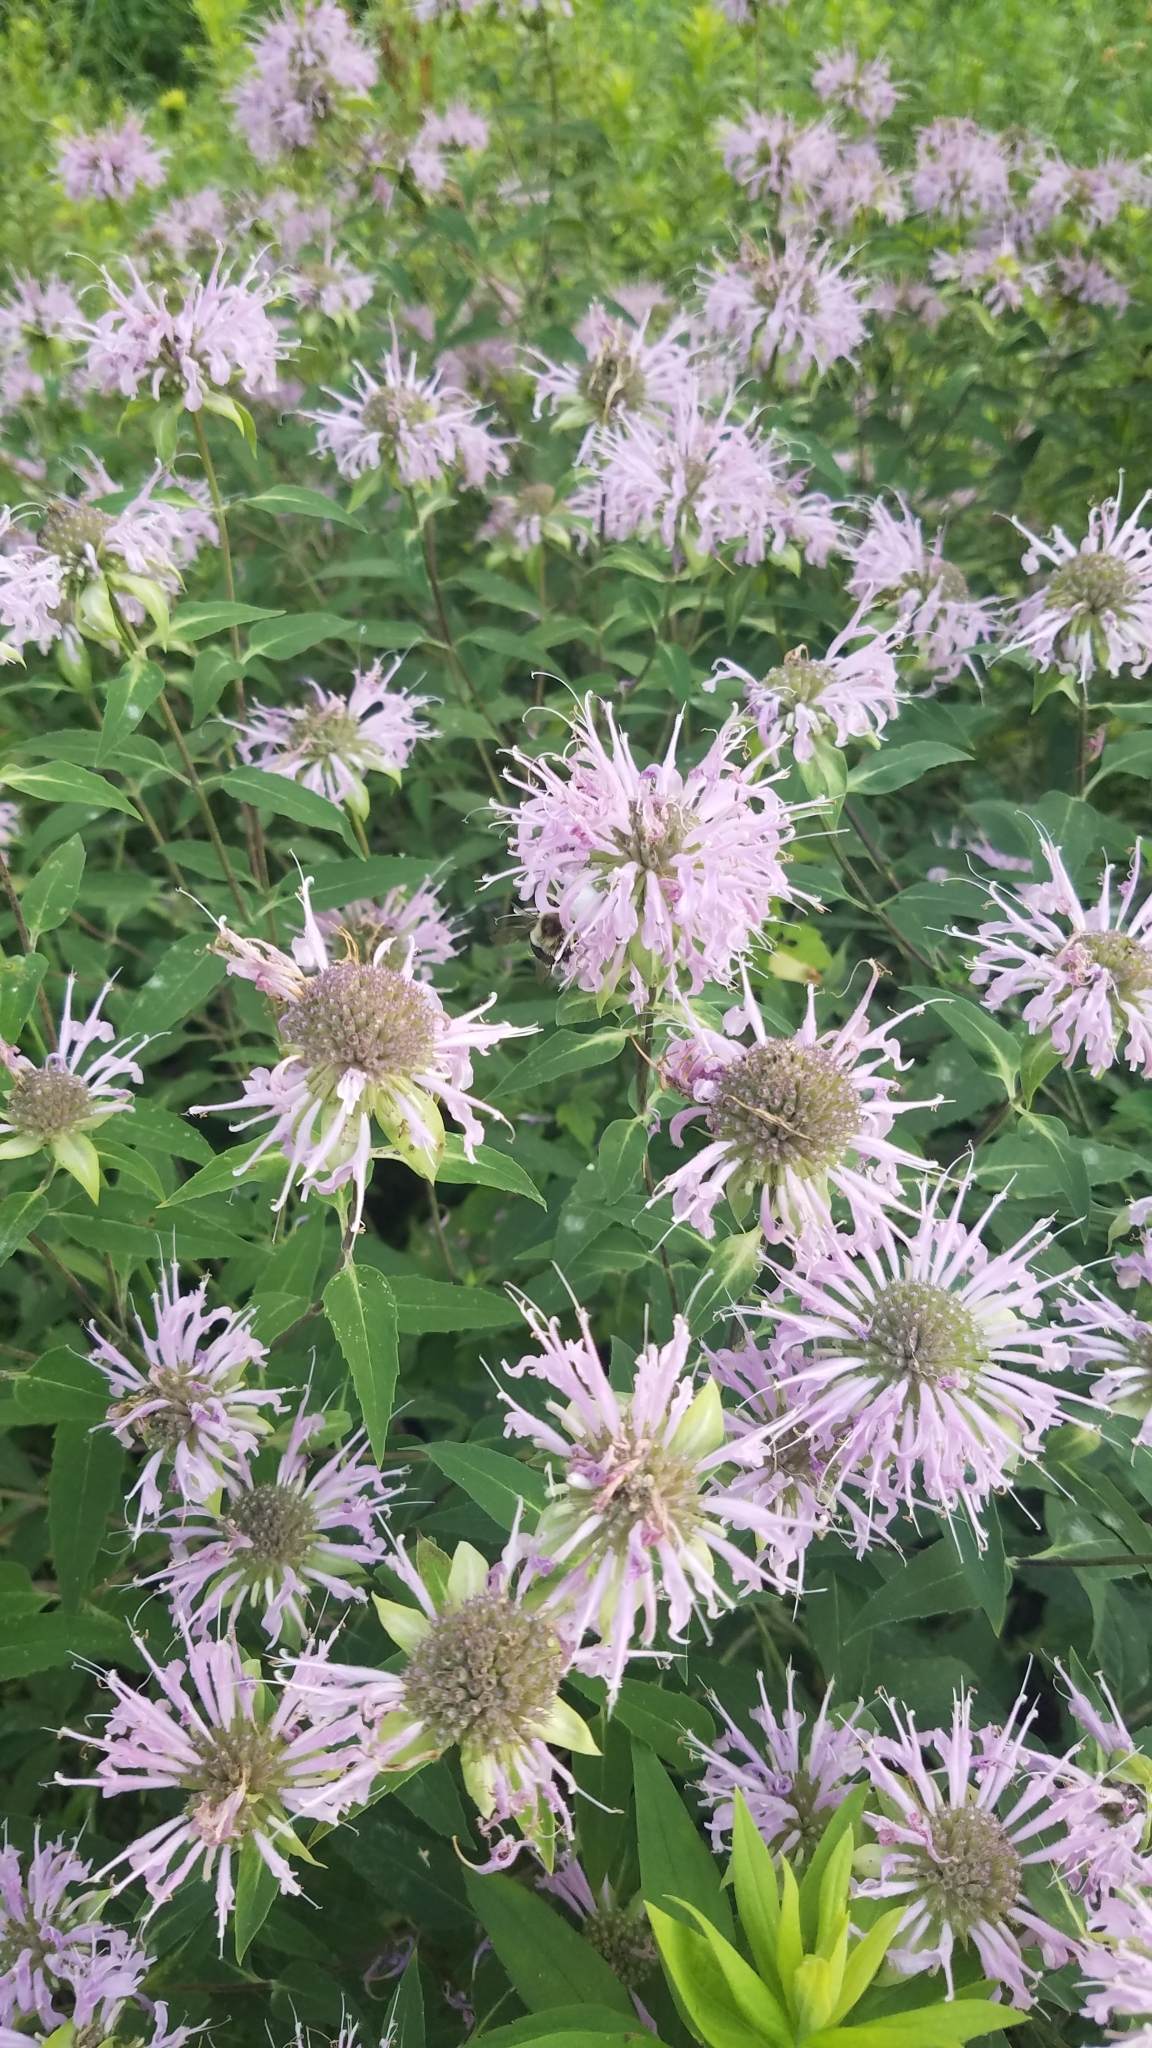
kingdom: Plantae
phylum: Tracheophyta
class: Magnoliopsida
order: Lamiales
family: Lamiaceae
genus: Monarda
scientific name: Monarda fistulosa
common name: Purple beebalm
